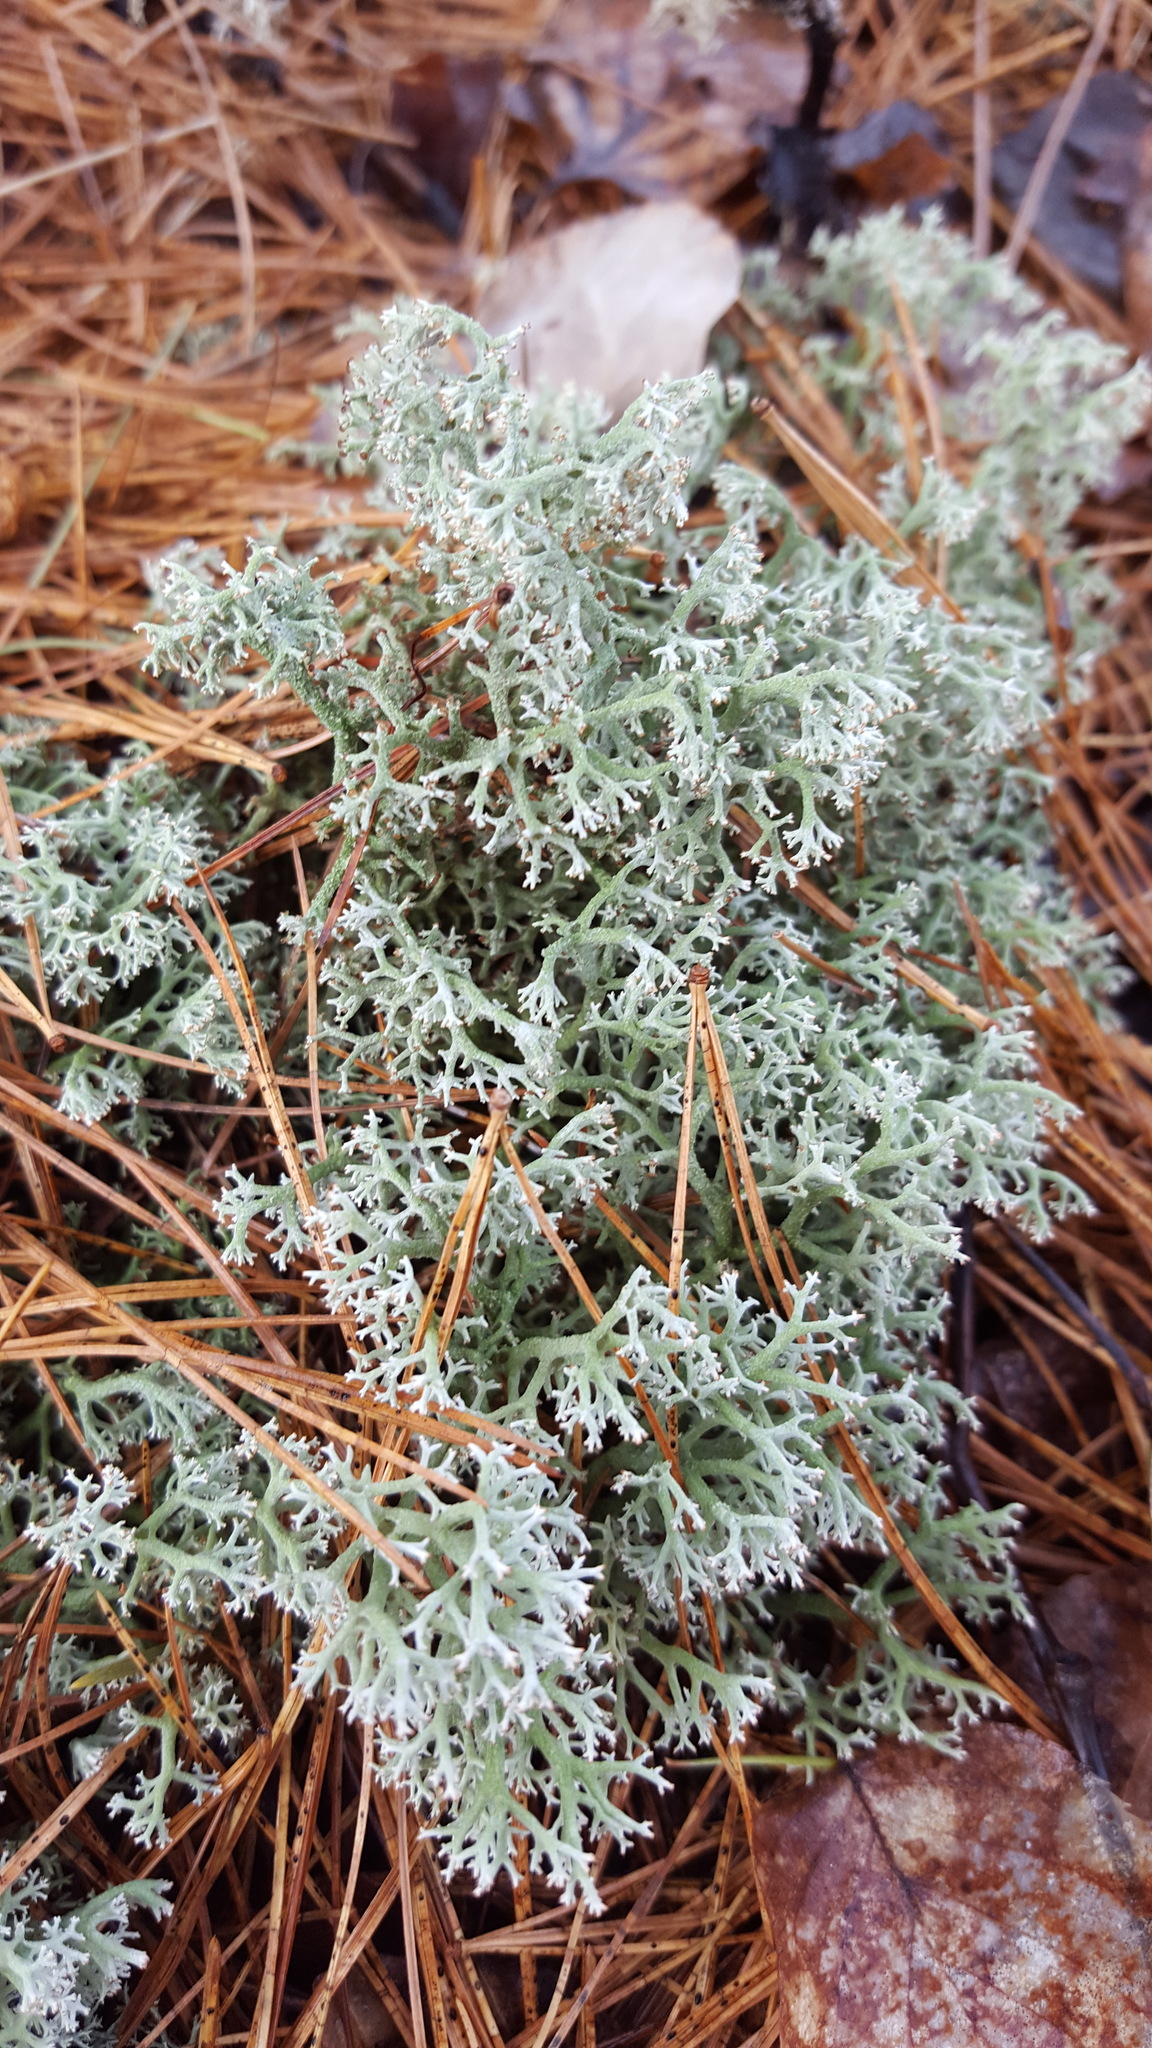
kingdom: Fungi
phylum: Ascomycota
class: Lecanoromycetes
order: Lecanorales
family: Cladoniaceae
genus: Cladonia
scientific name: Cladonia mitis
